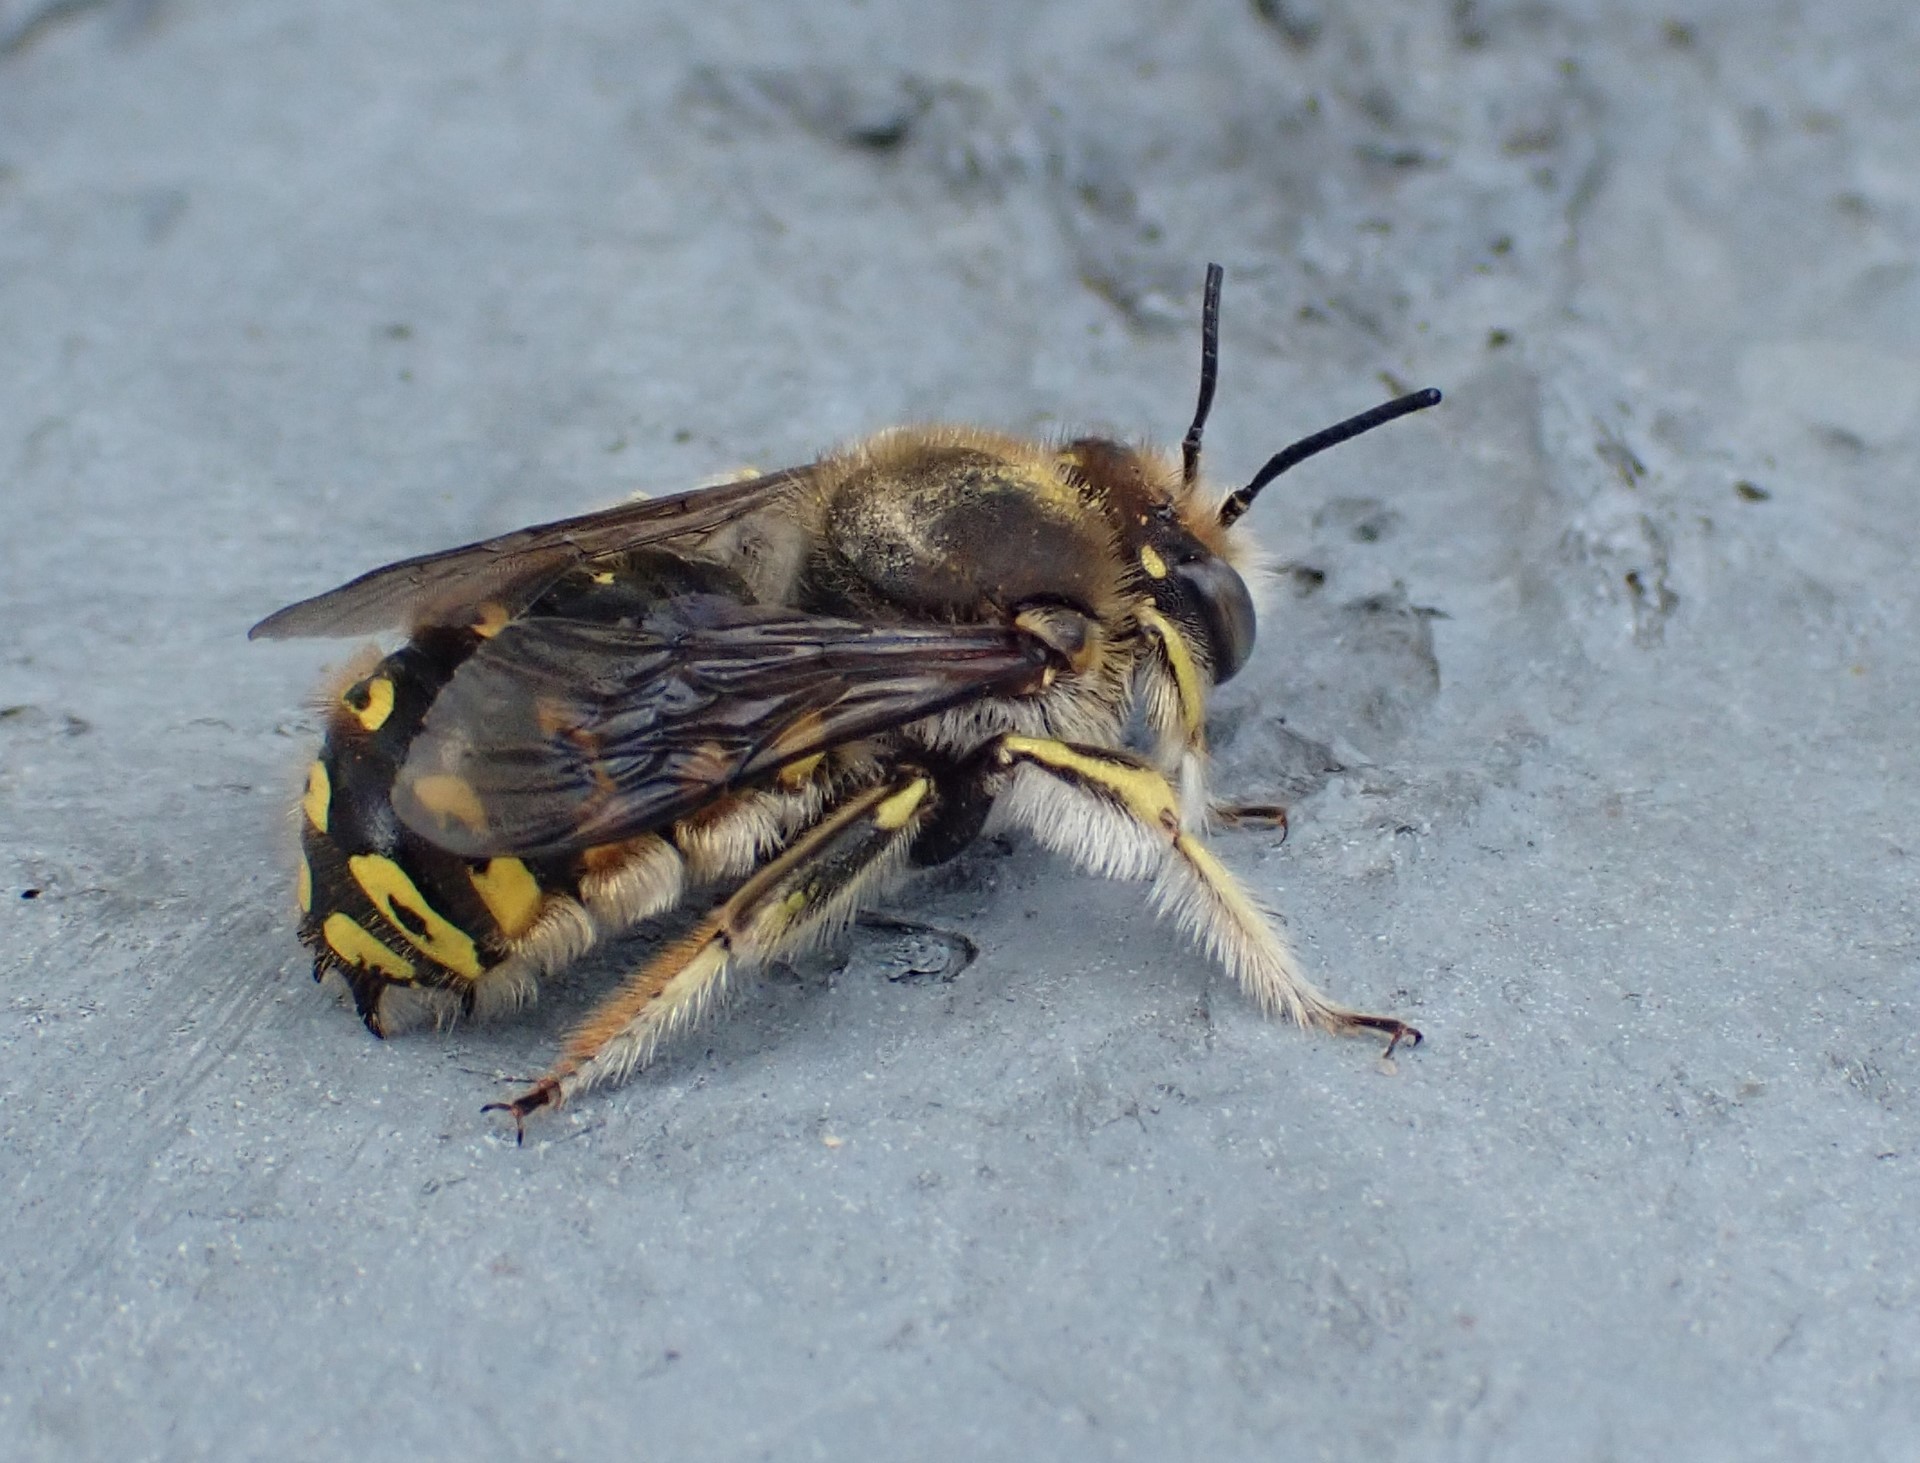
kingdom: Animalia
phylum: Arthropoda
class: Insecta
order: Hymenoptera
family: Megachilidae
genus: Anthidium
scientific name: Anthidium manicatum
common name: Wool carder bee
